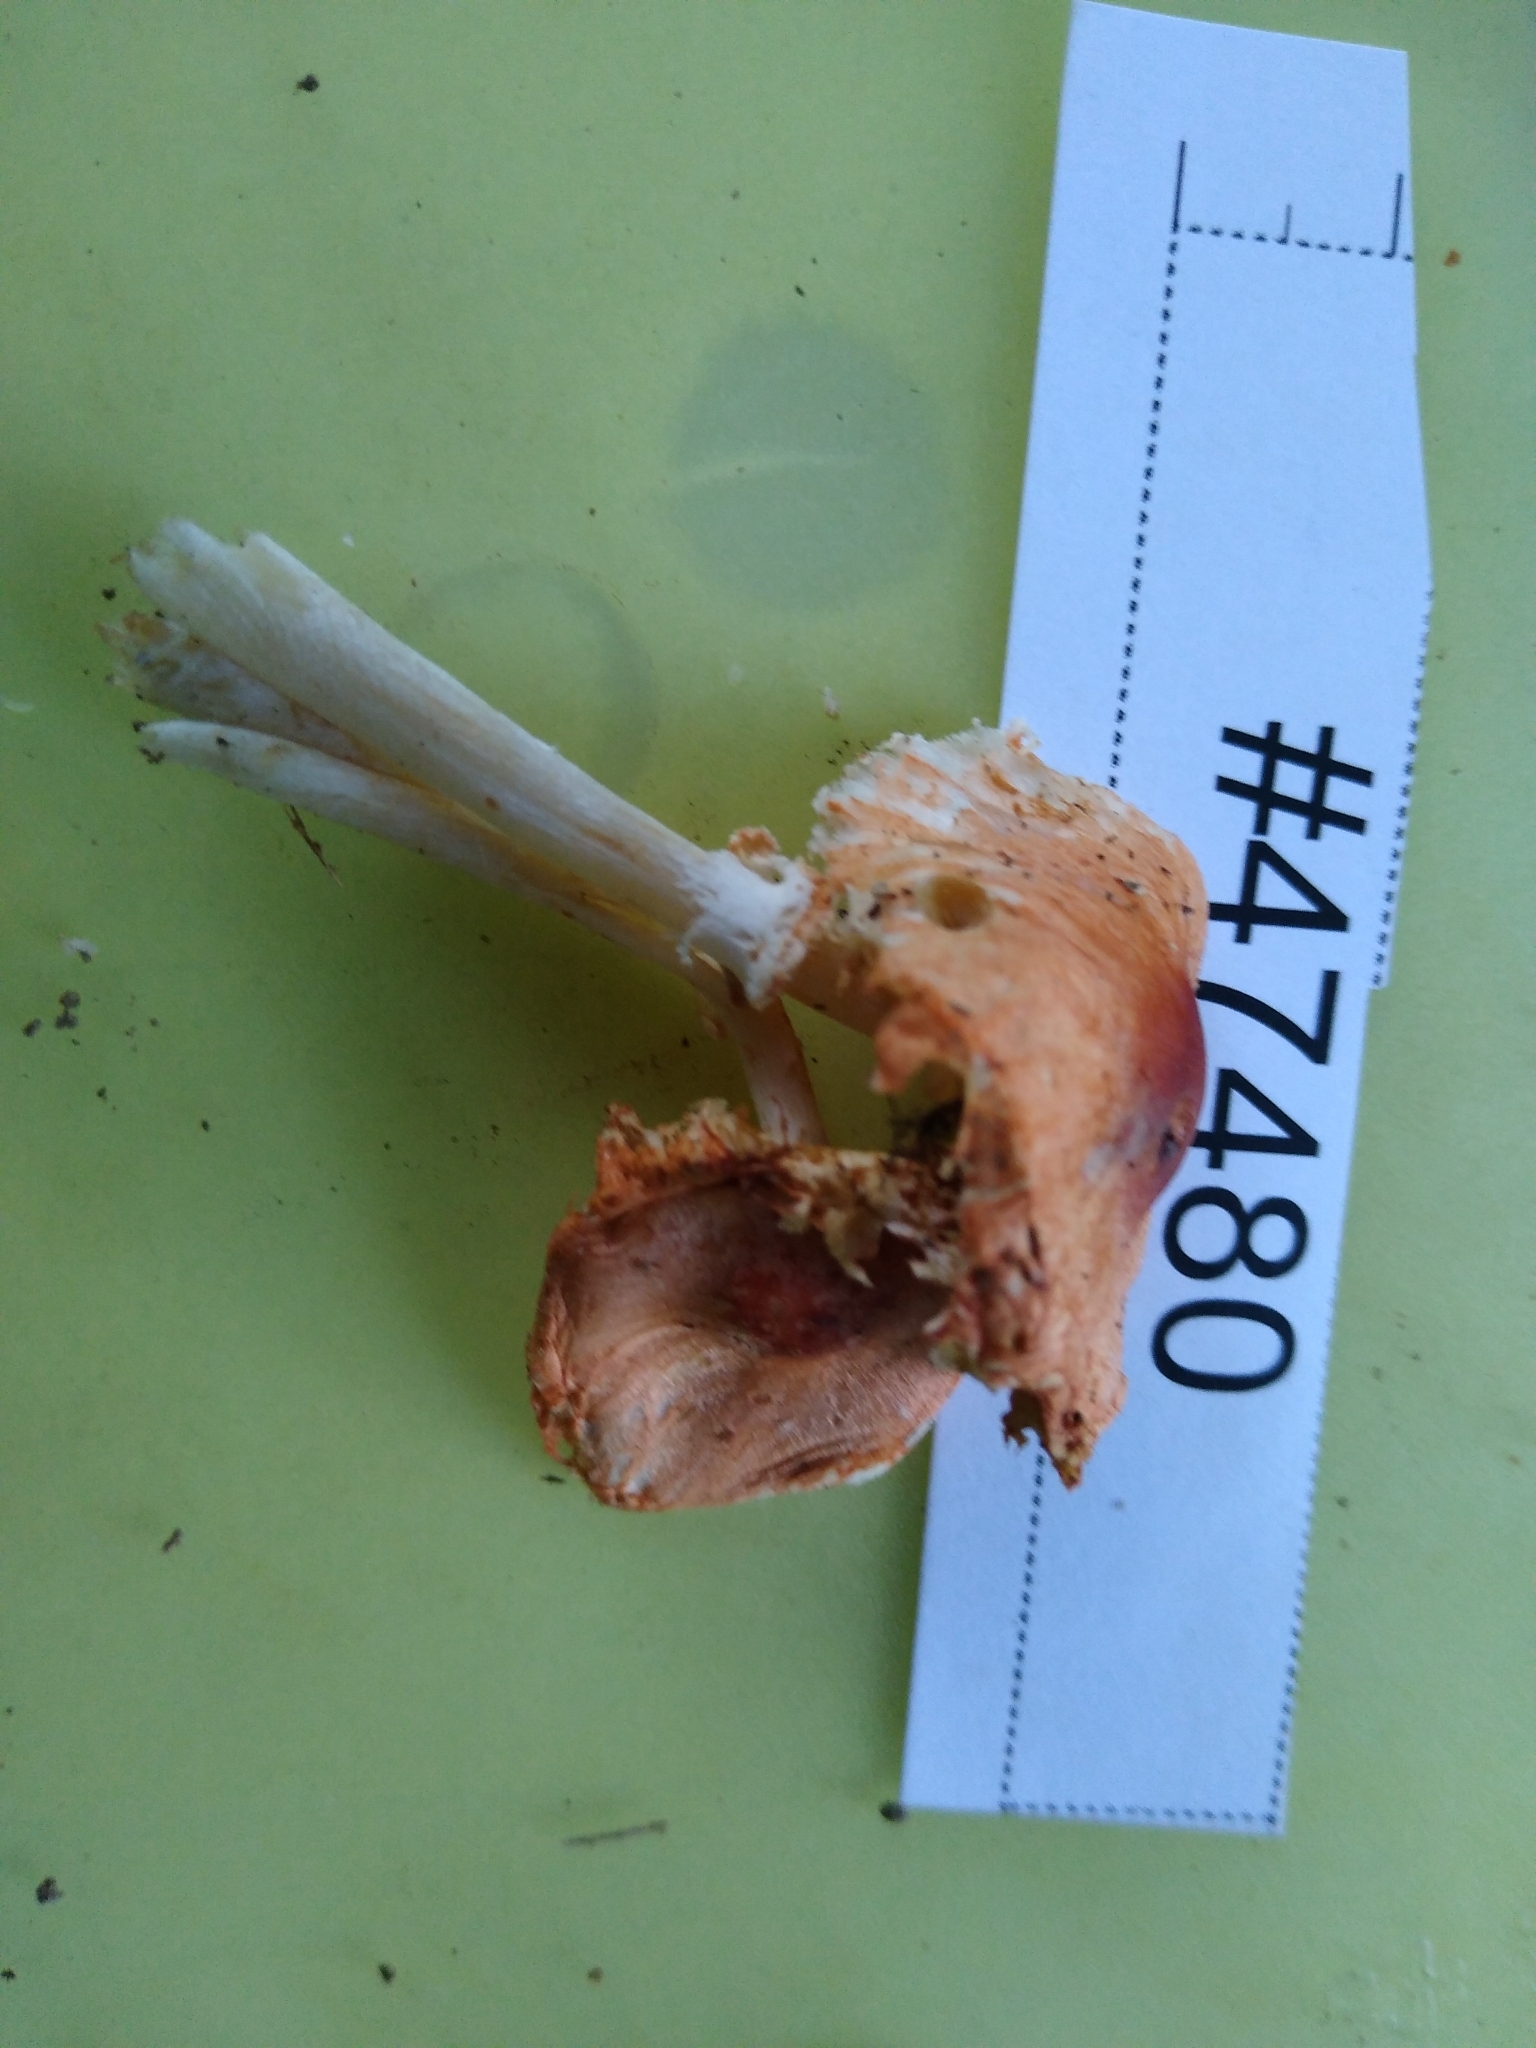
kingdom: Fungi
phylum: Basidiomycota
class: Agaricomycetes
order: Agaricales
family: Agaricaceae
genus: Leucoagaricus
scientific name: Leucoagaricus rubrotinctus
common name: Ruby dapperling
